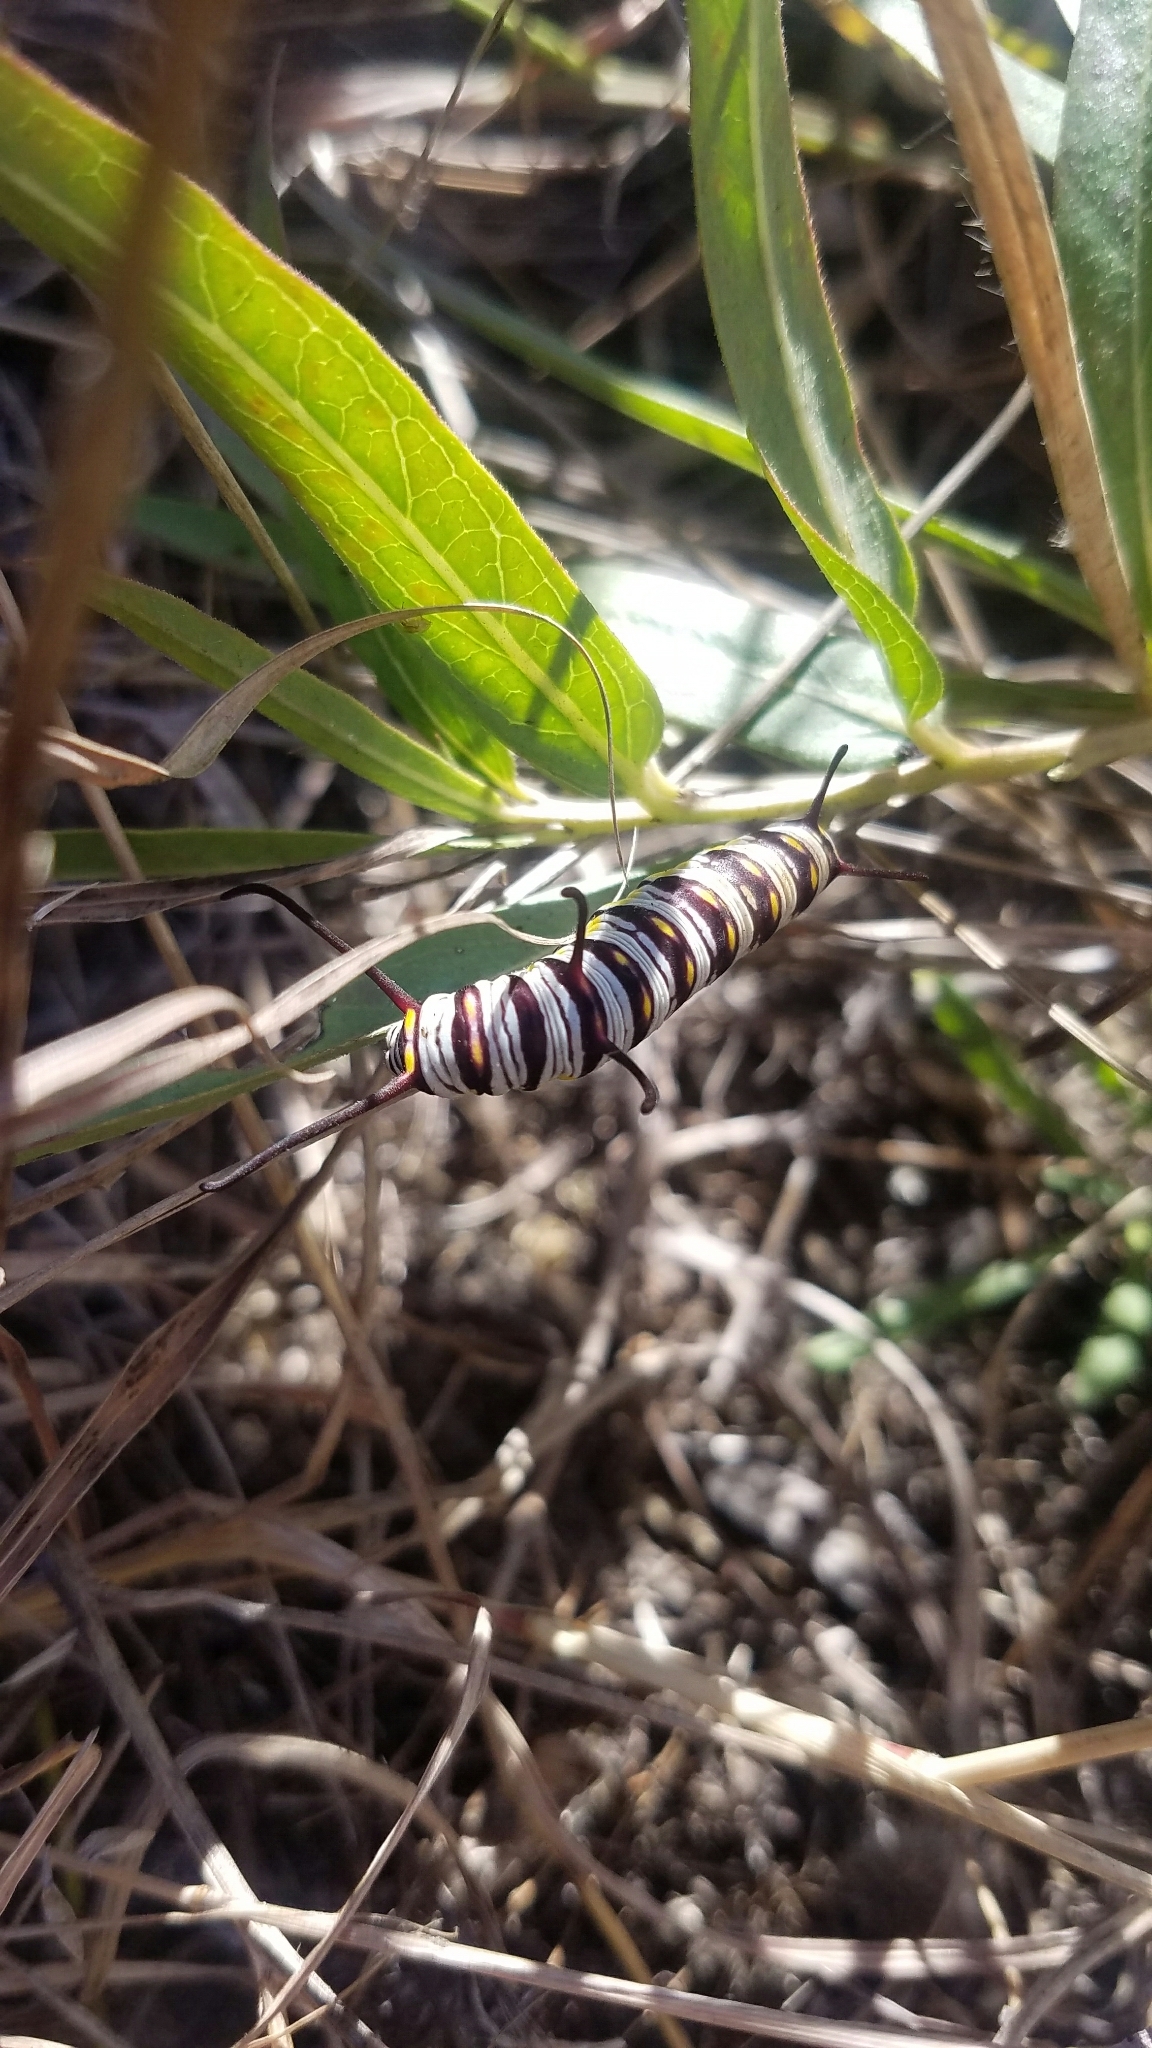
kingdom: Animalia
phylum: Arthropoda
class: Insecta
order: Lepidoptera
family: Nymphalidae
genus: Danaus
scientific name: Danaus gilippus
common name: Queen
